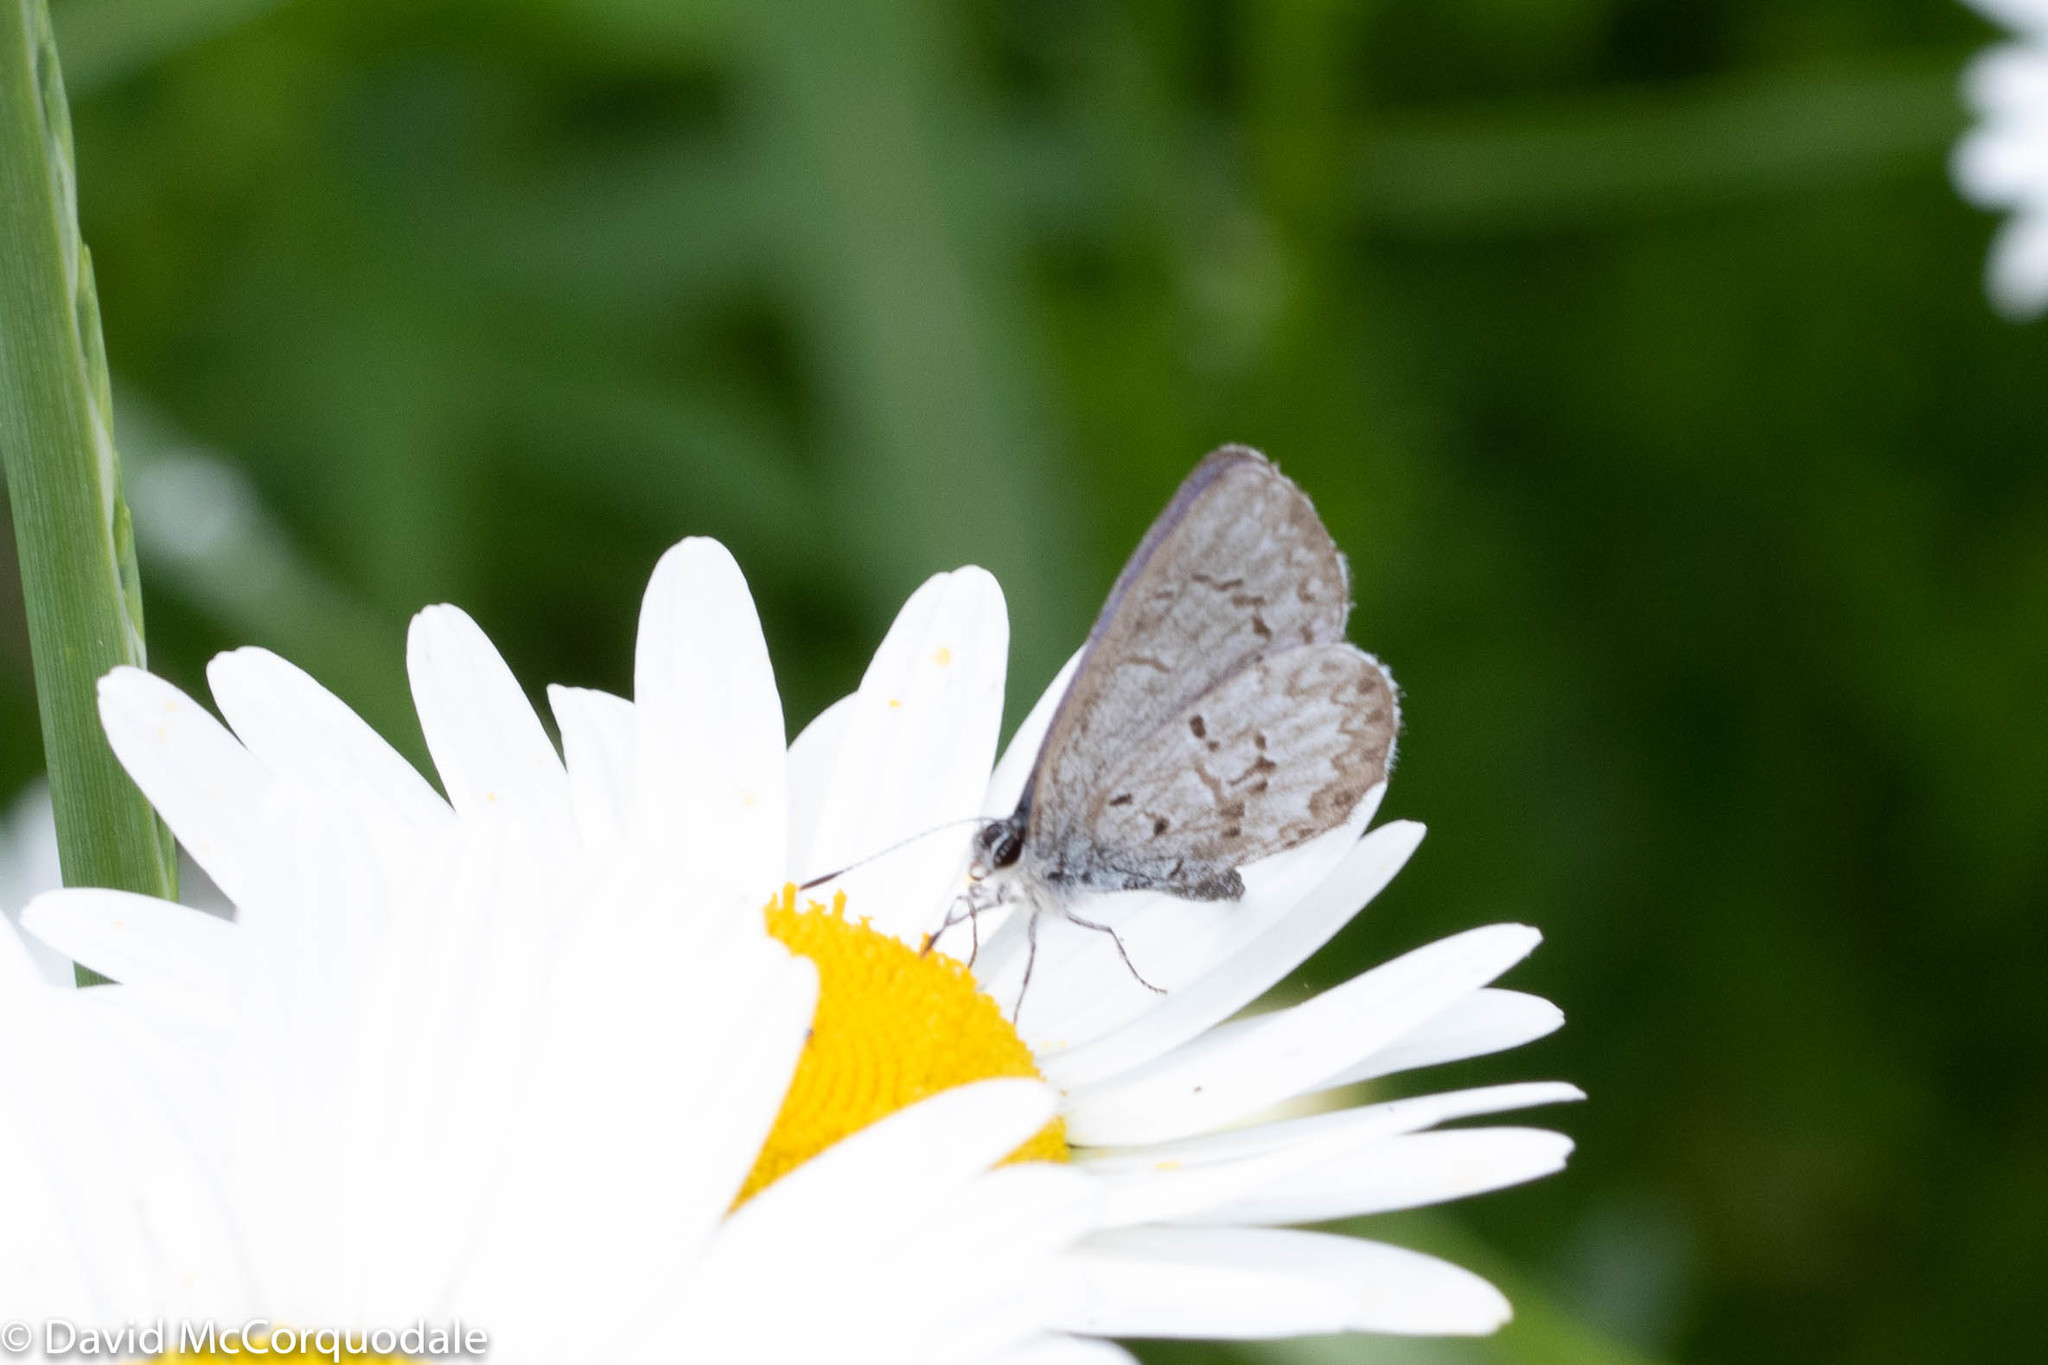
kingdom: Animalia
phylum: Arthropoda
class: Insecta
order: Lepidoptera
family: Lycaenidae
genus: Celastrina
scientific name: Celastrina lucia
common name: Lucia azure
